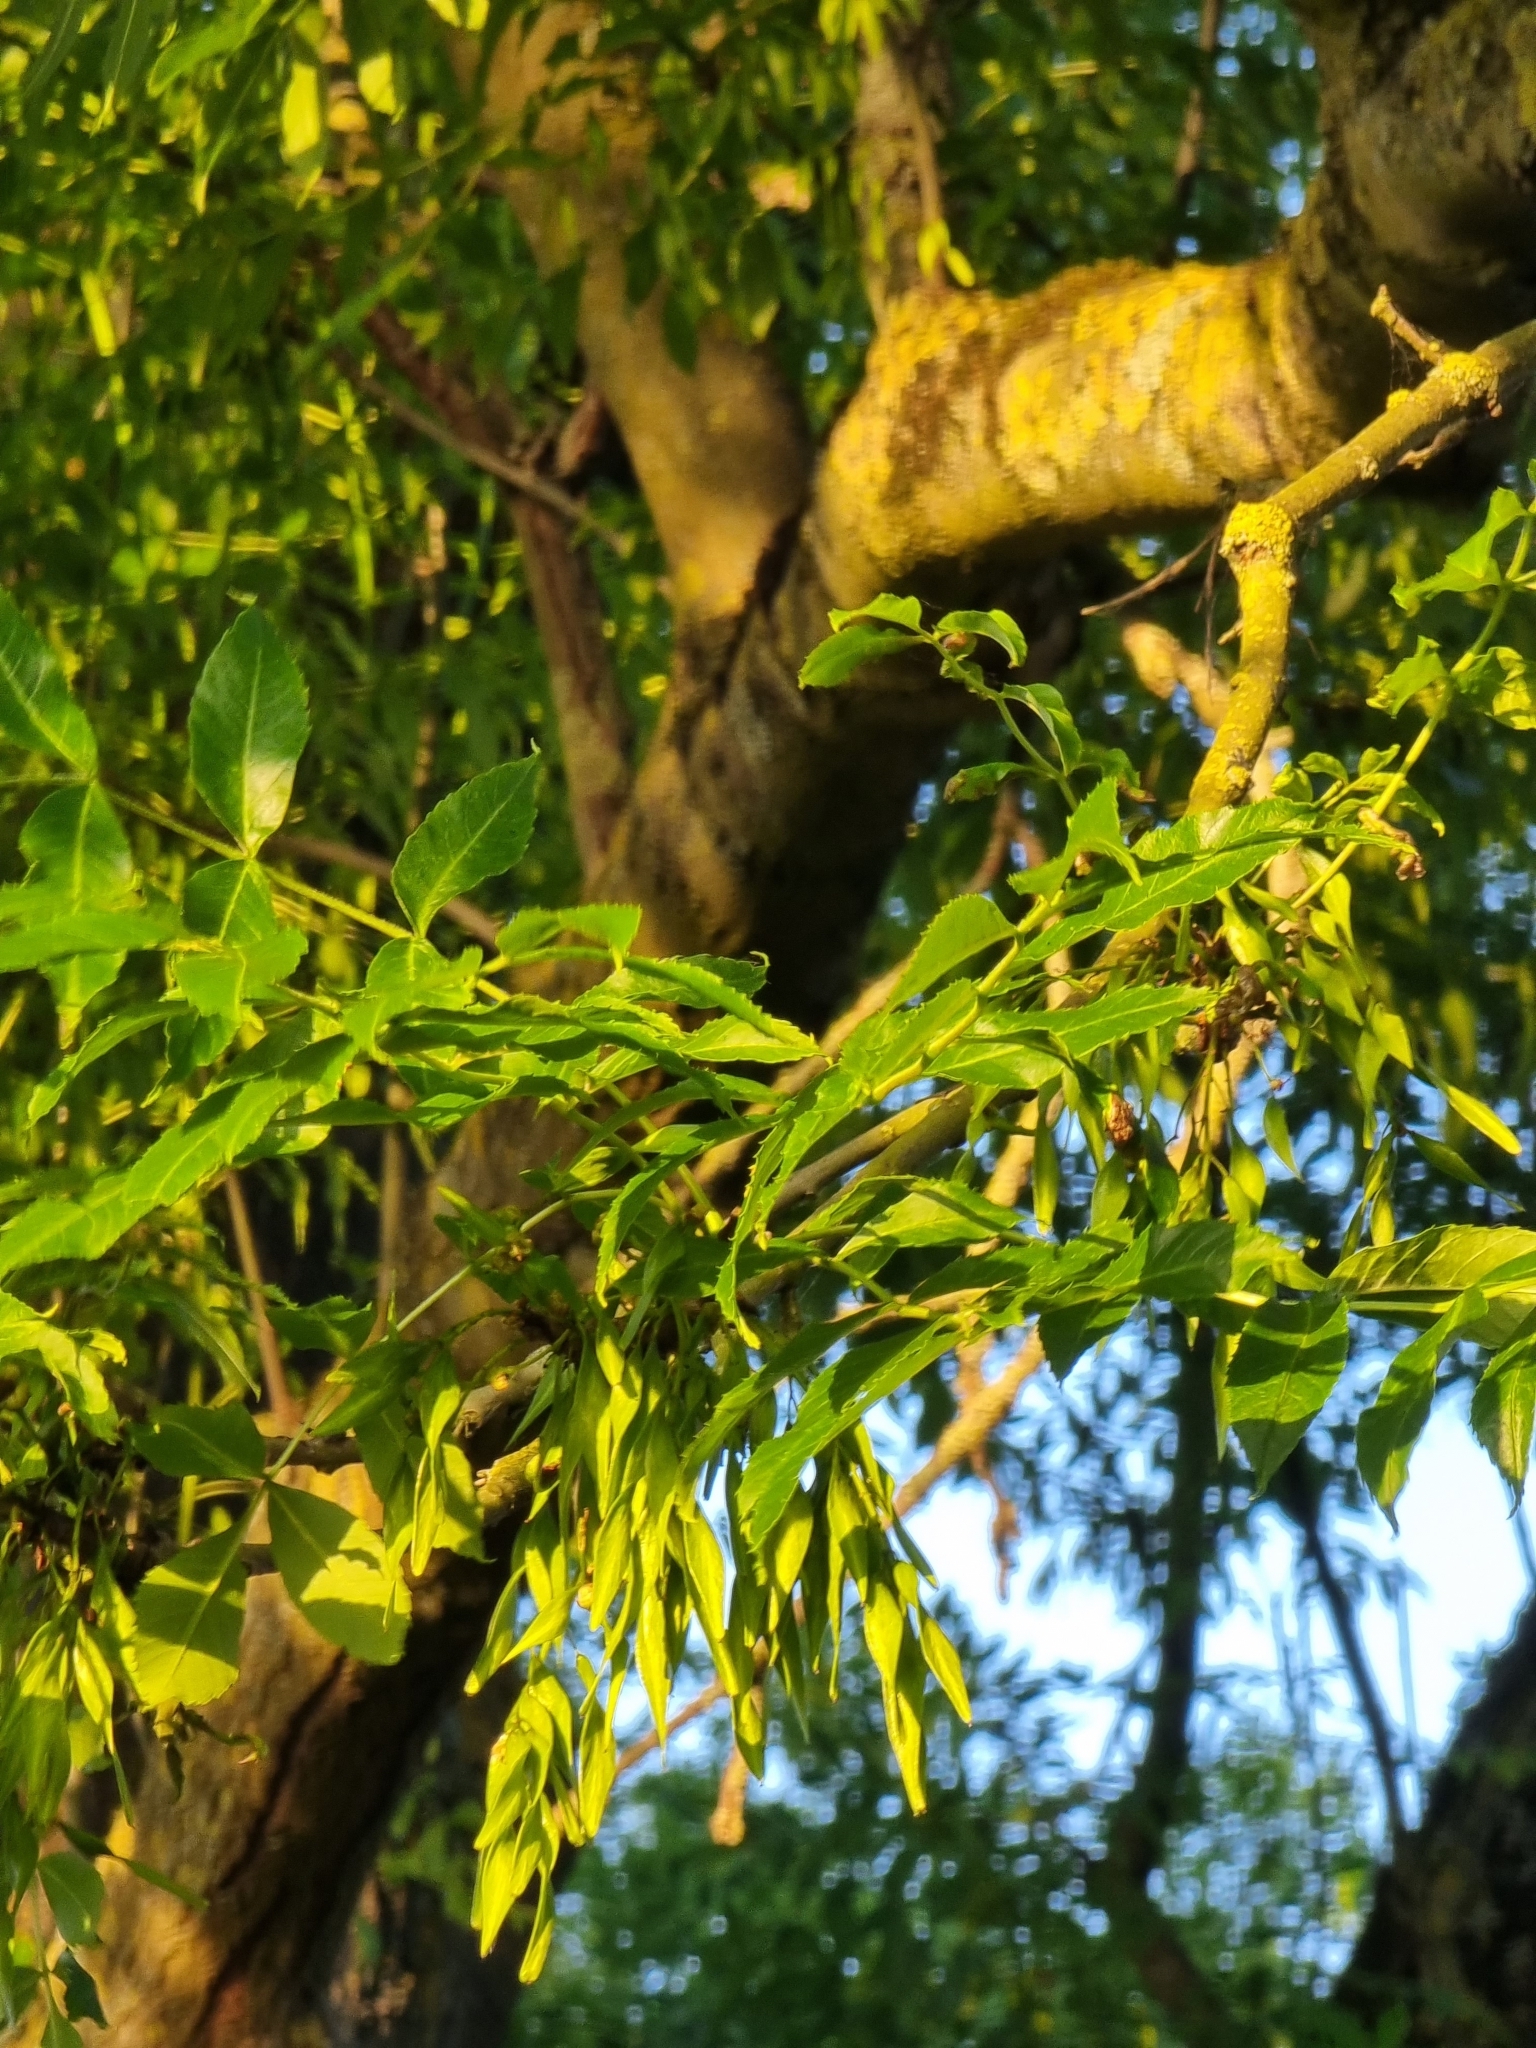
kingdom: Plantae
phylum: Tracheophyta
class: Magnoliopsida
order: Lamiales
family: Oleaceae
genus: Fraxinus
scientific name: Fraxinus excelsior
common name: European ash
